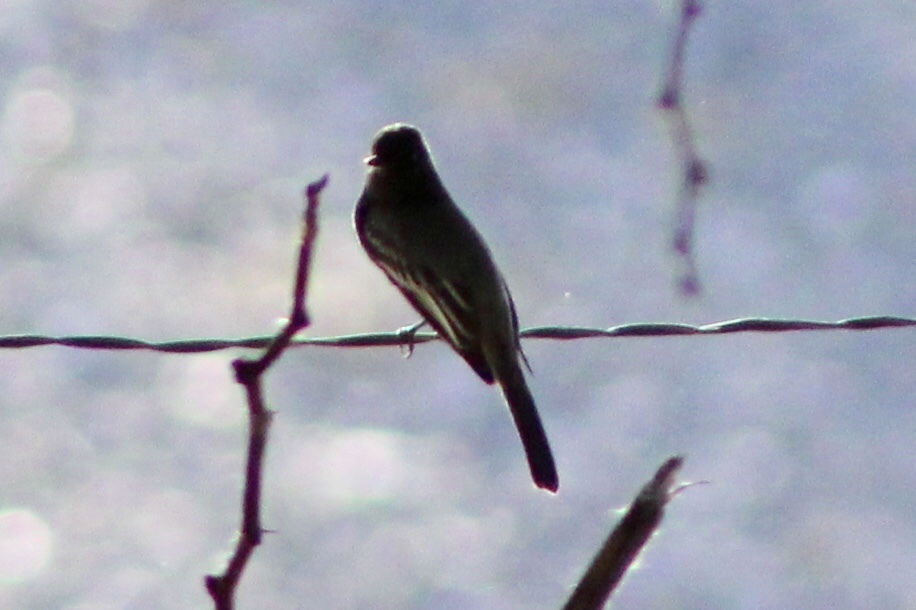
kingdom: Animalia
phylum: Chordata
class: Aves
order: Passeriformes
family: Tyrannidae
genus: Sayornis
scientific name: Sayornis nigricans
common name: Black phoebe
